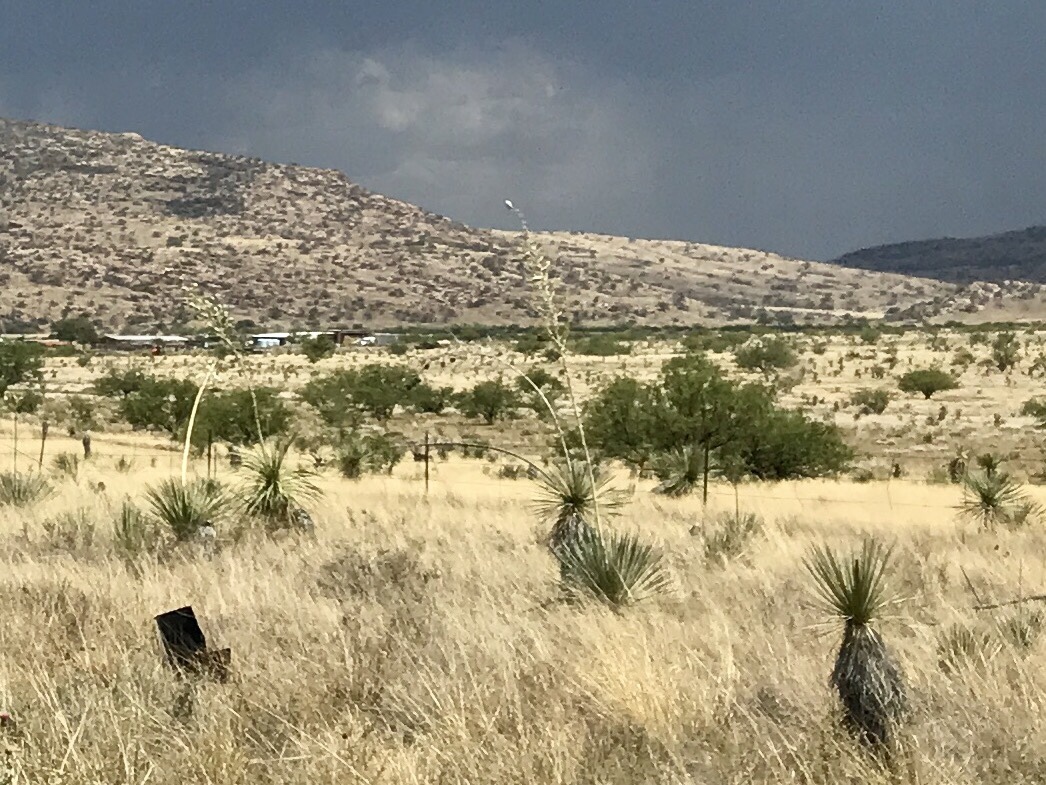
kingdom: Plantae
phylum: Tracheophyta
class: Liliopsida
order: Asparagales
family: Asparagaceae
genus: Yucca
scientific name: Yucca elata
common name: Palmella
